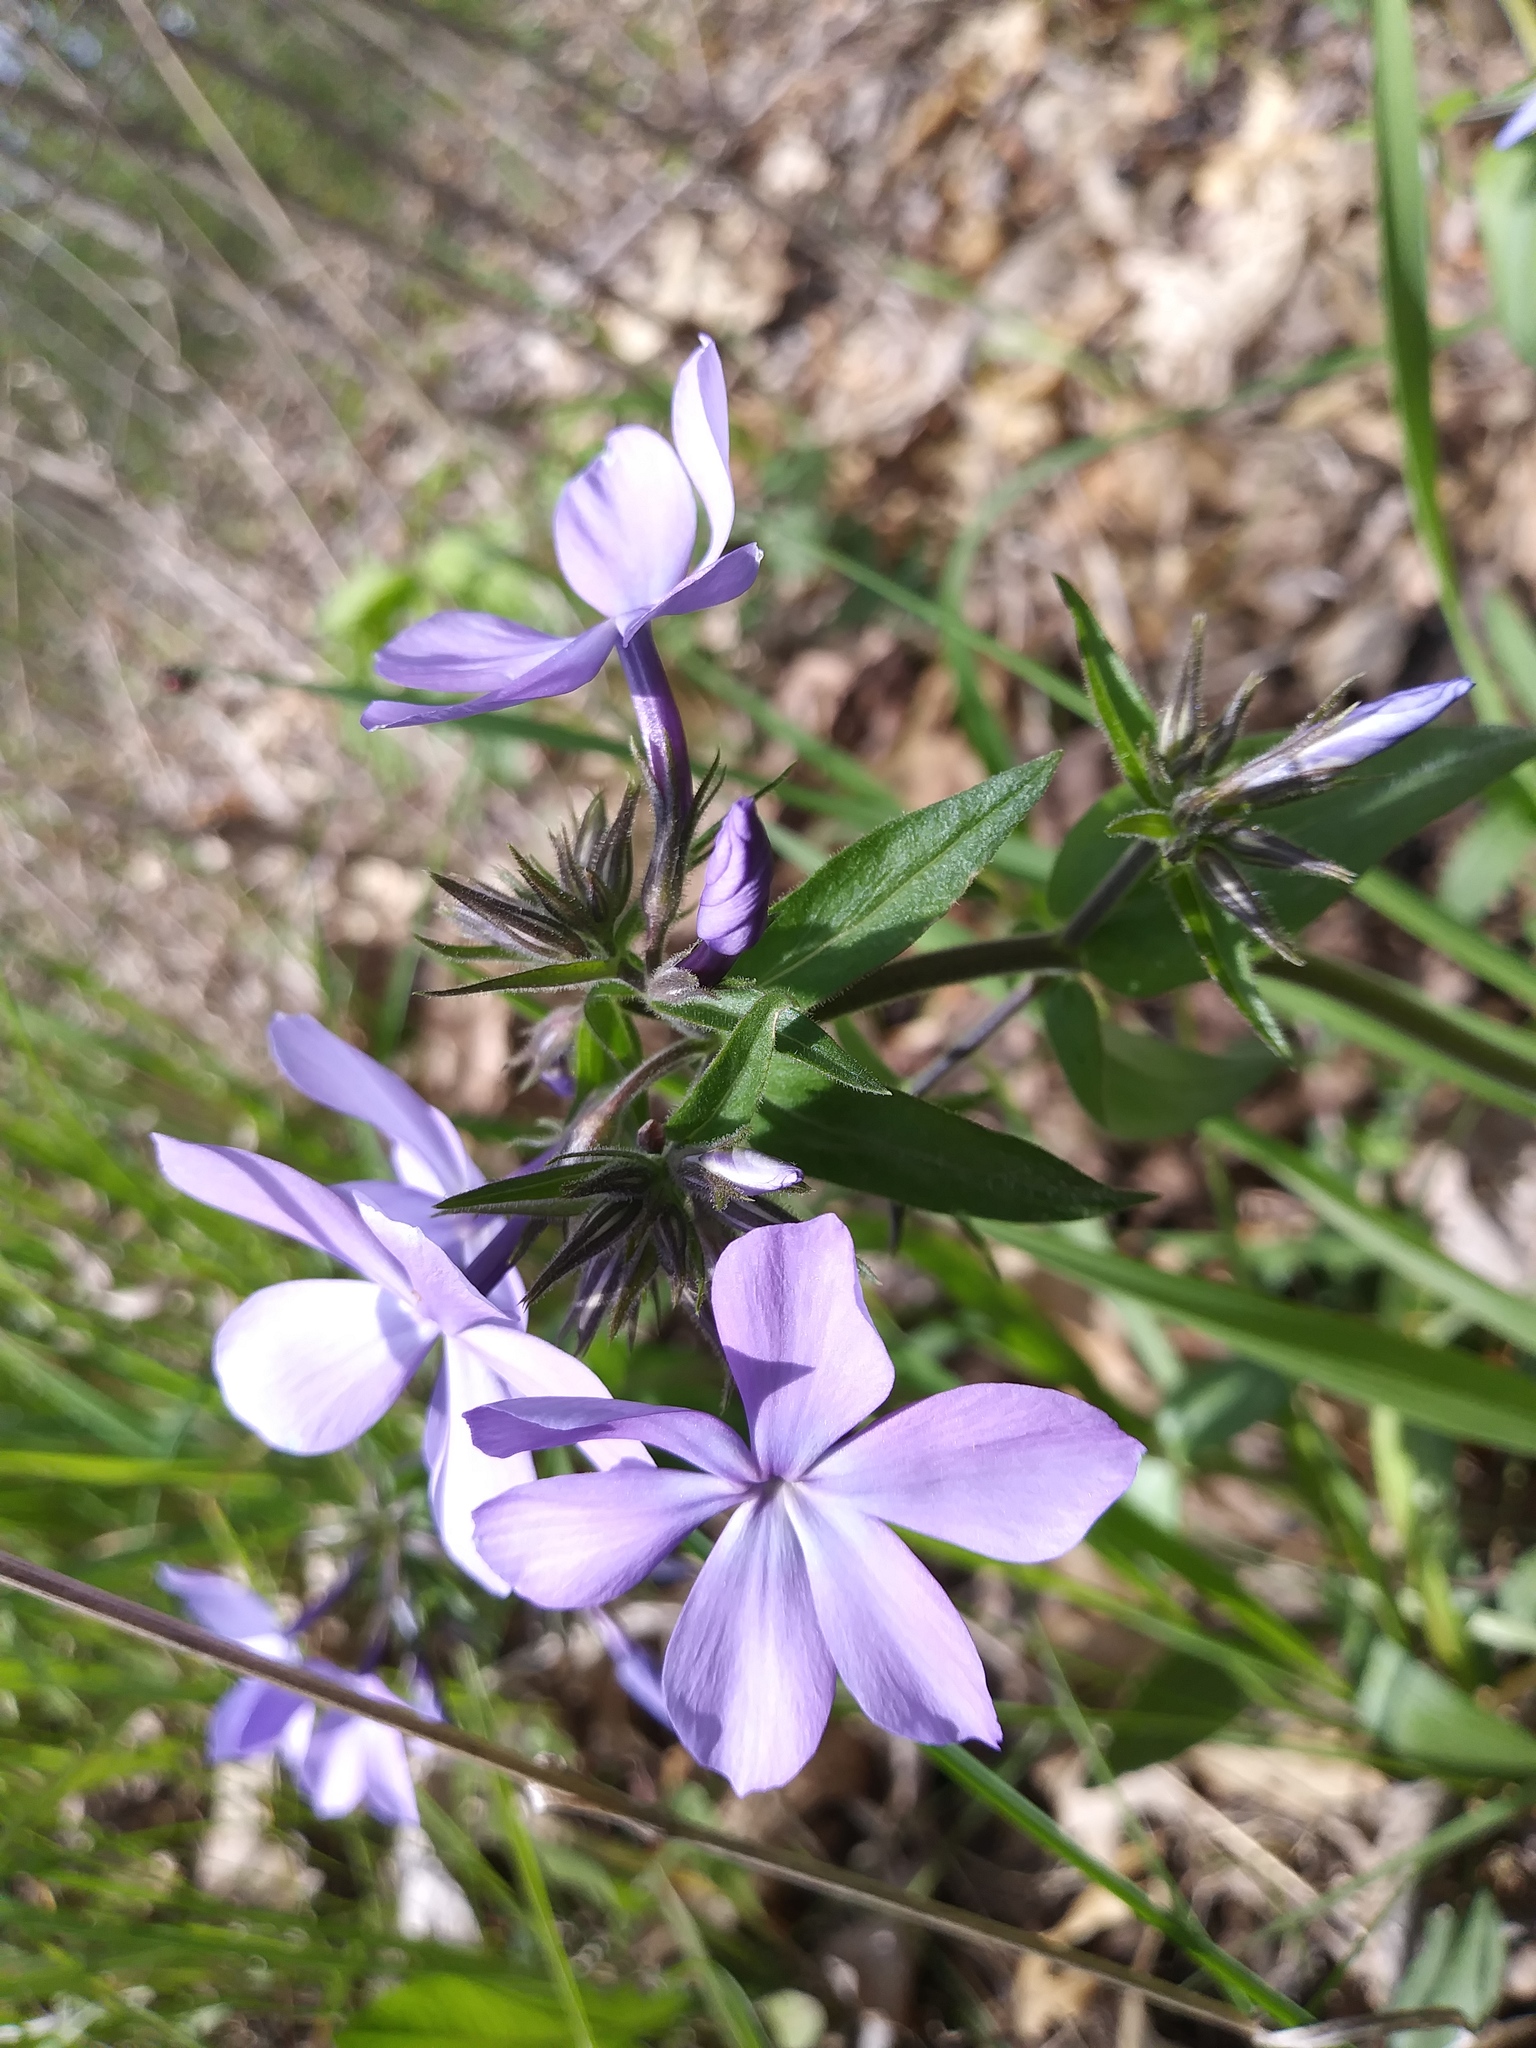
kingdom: Plantae
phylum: Tracheophyta
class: Magnoliopsida
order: Ericales
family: Polemoniaceae
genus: Phlox
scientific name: Phlox divaricata
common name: Blue phlox
